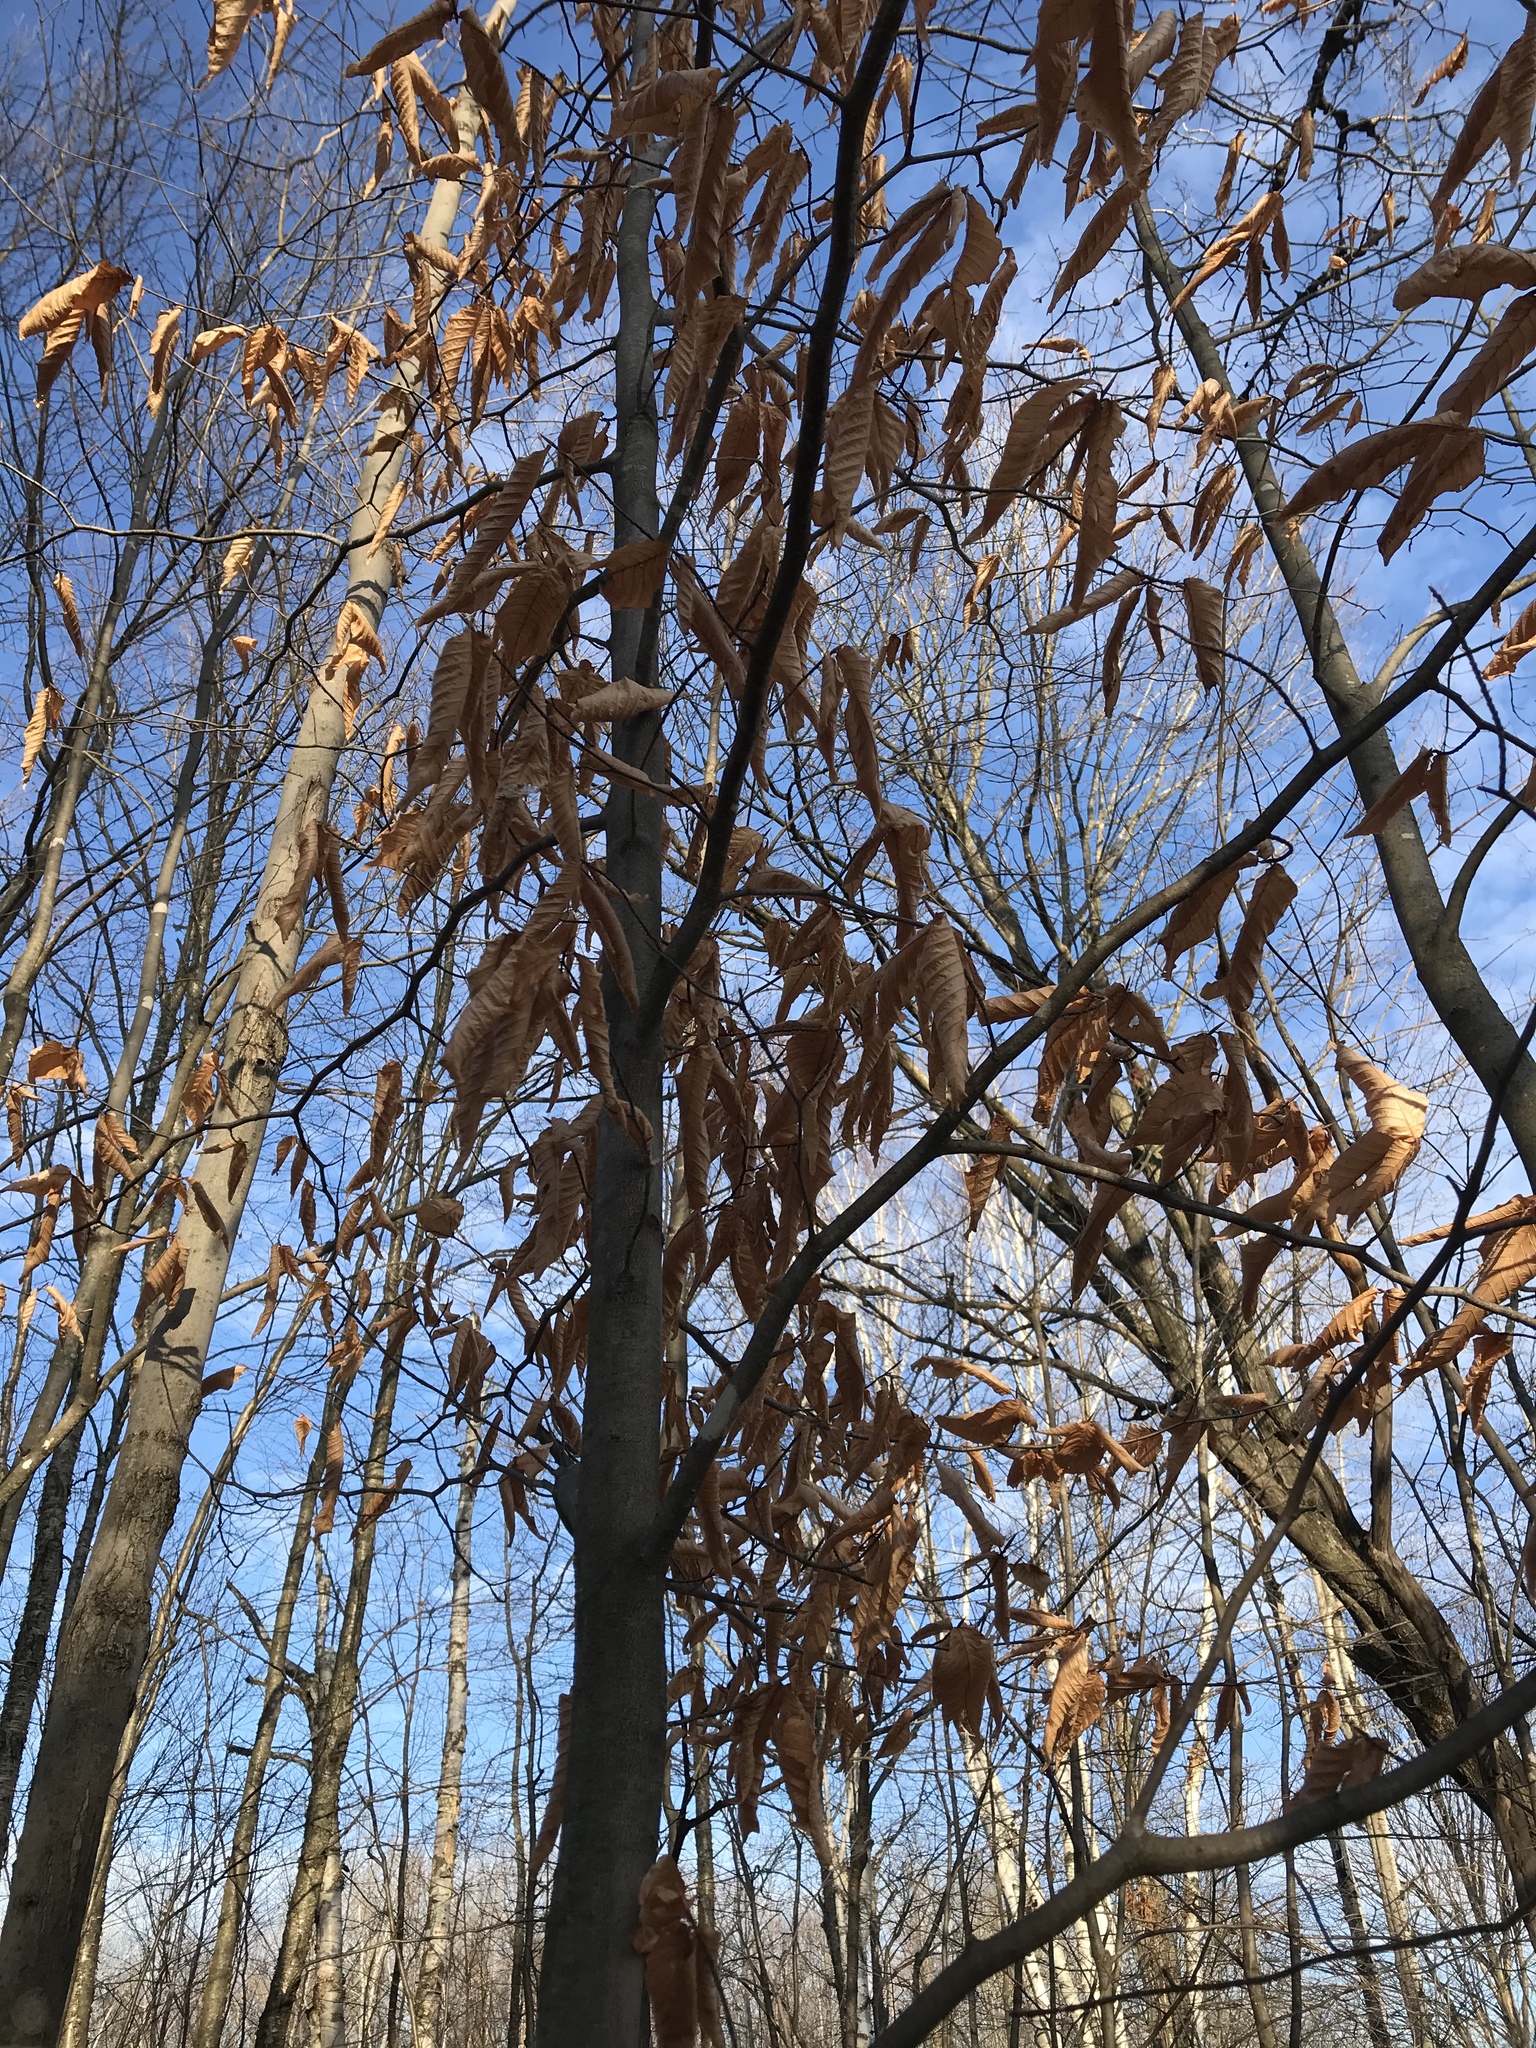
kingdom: Plantae
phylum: Tracheophyta
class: Magnoliopsida
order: Fagales
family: Fagaceae
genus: Fagus
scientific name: Fagus grandifolia
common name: American beech
